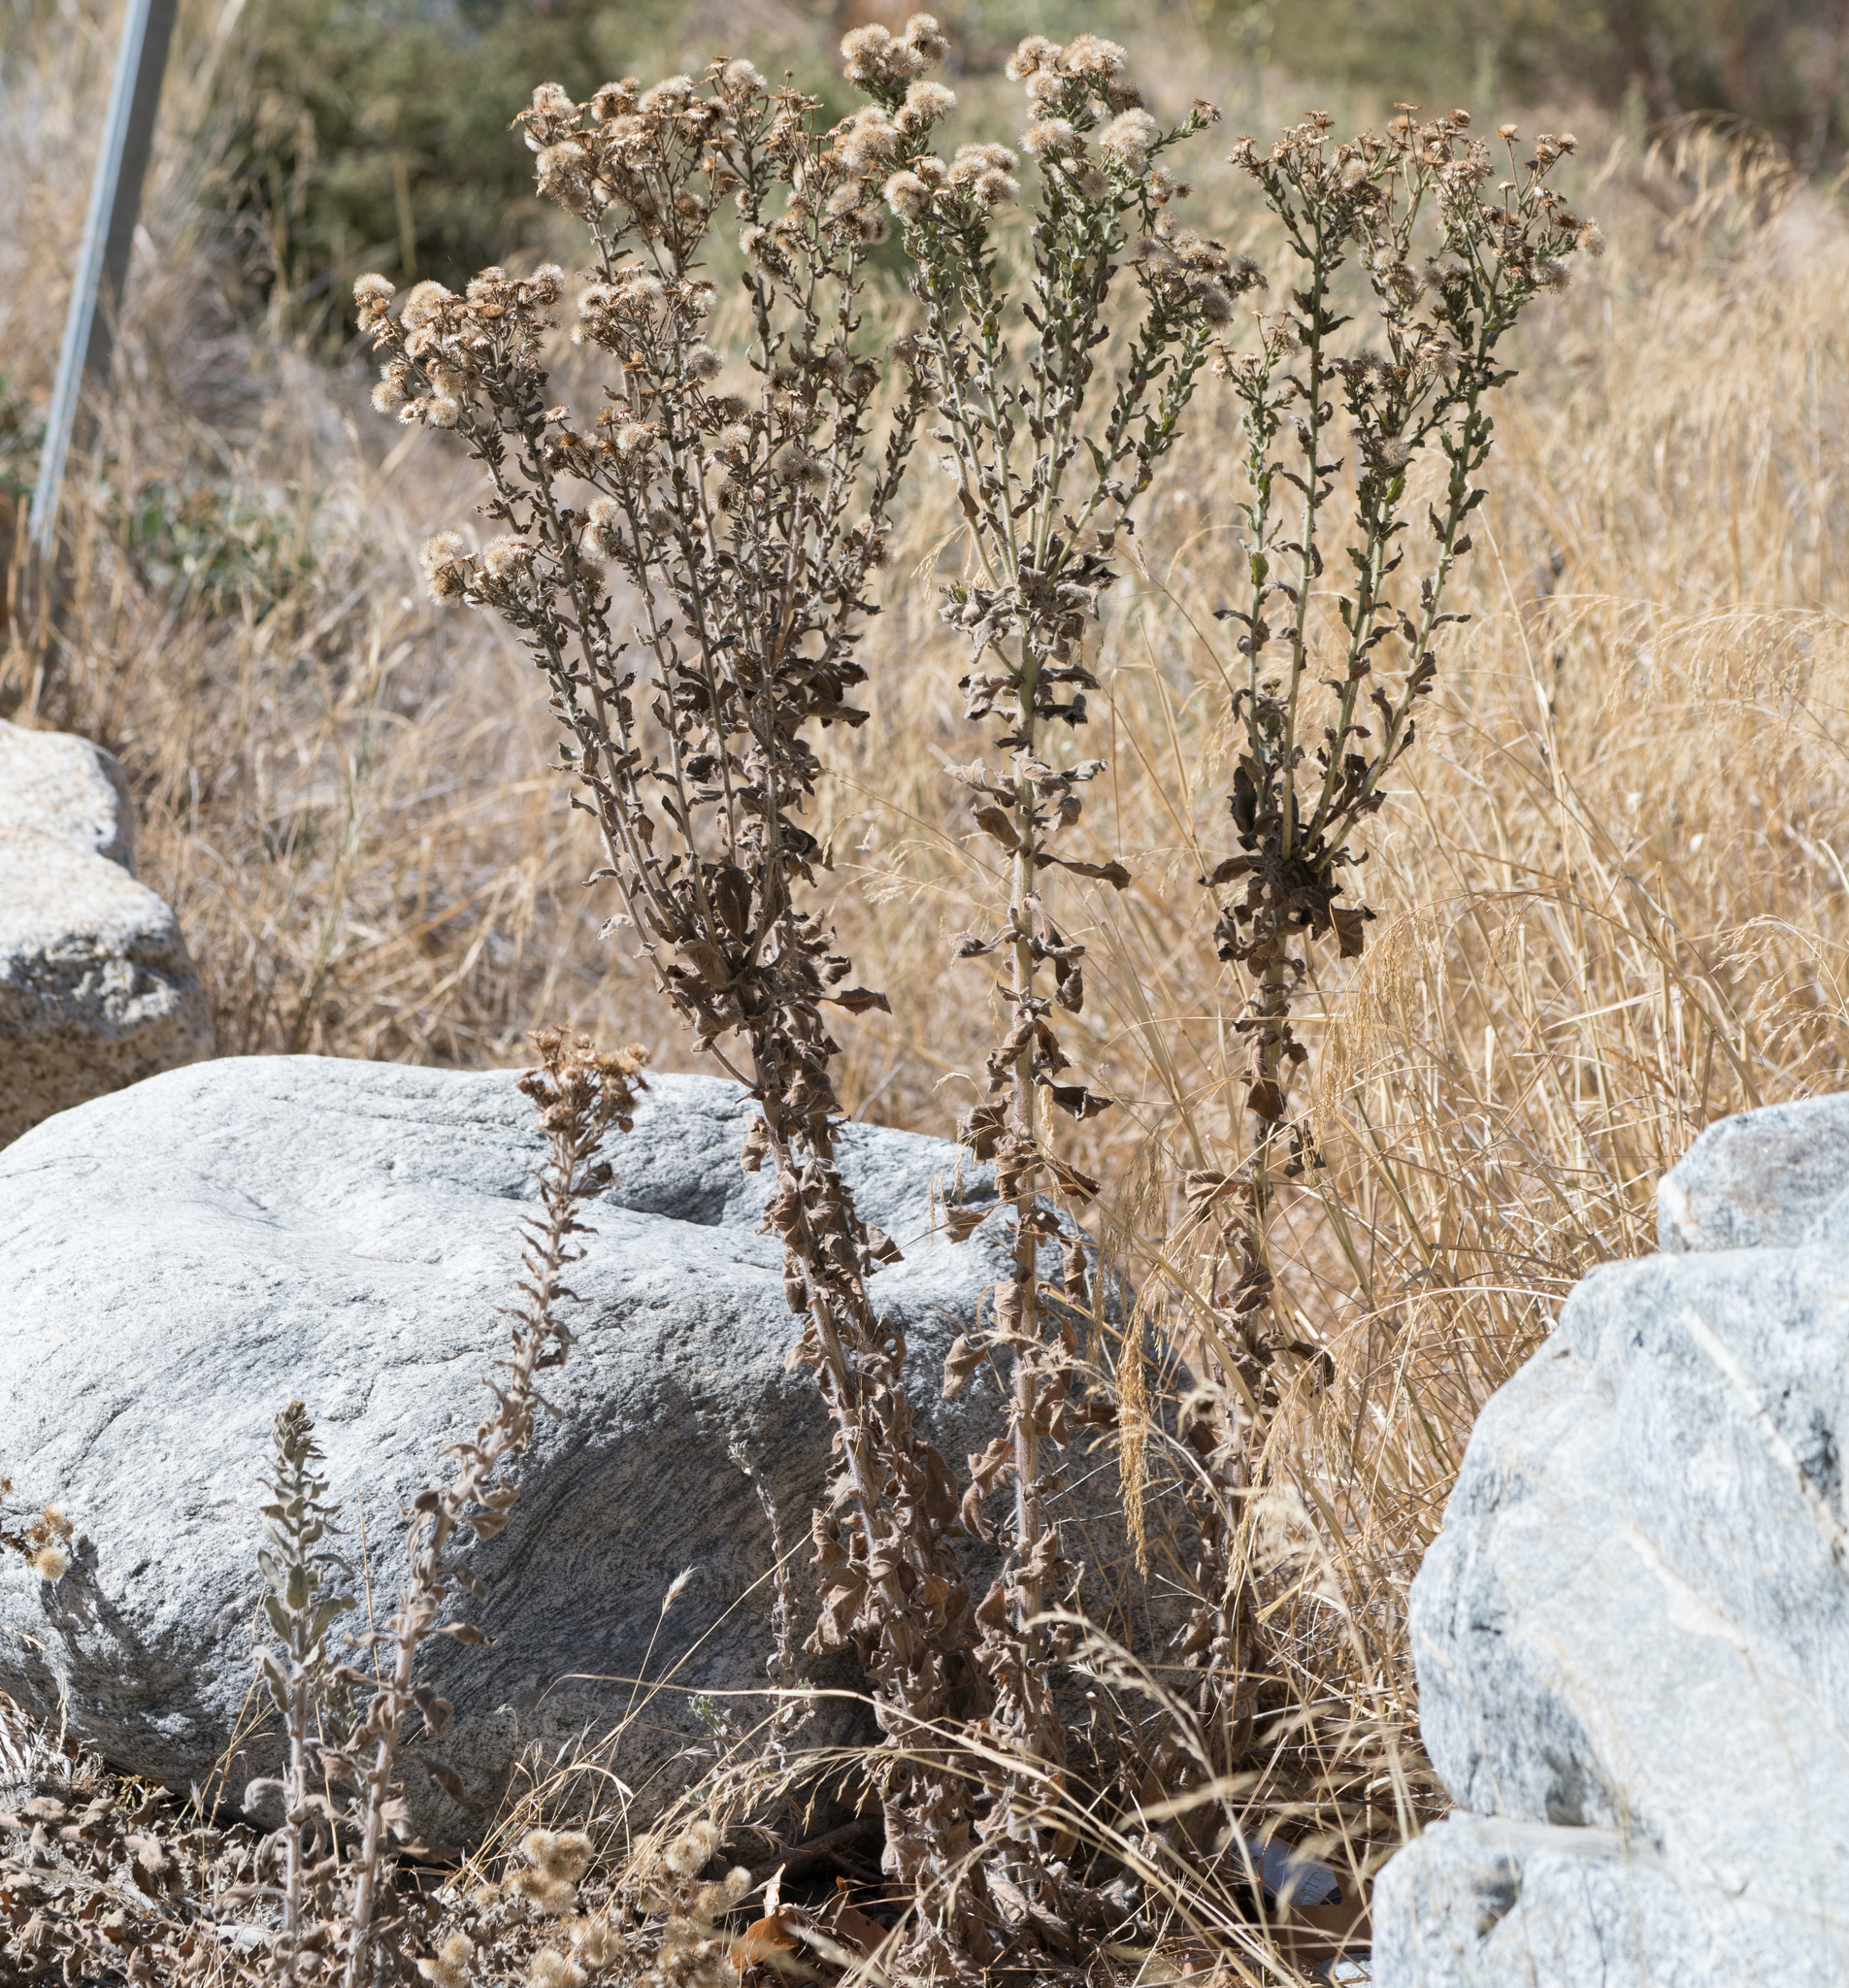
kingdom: Plantae
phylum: Tracheophyta
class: Magnoliopsida
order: Asterales
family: Asteraceae
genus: Heterotheca
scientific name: Heterotheca grandiflora
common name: Telegraphweed
